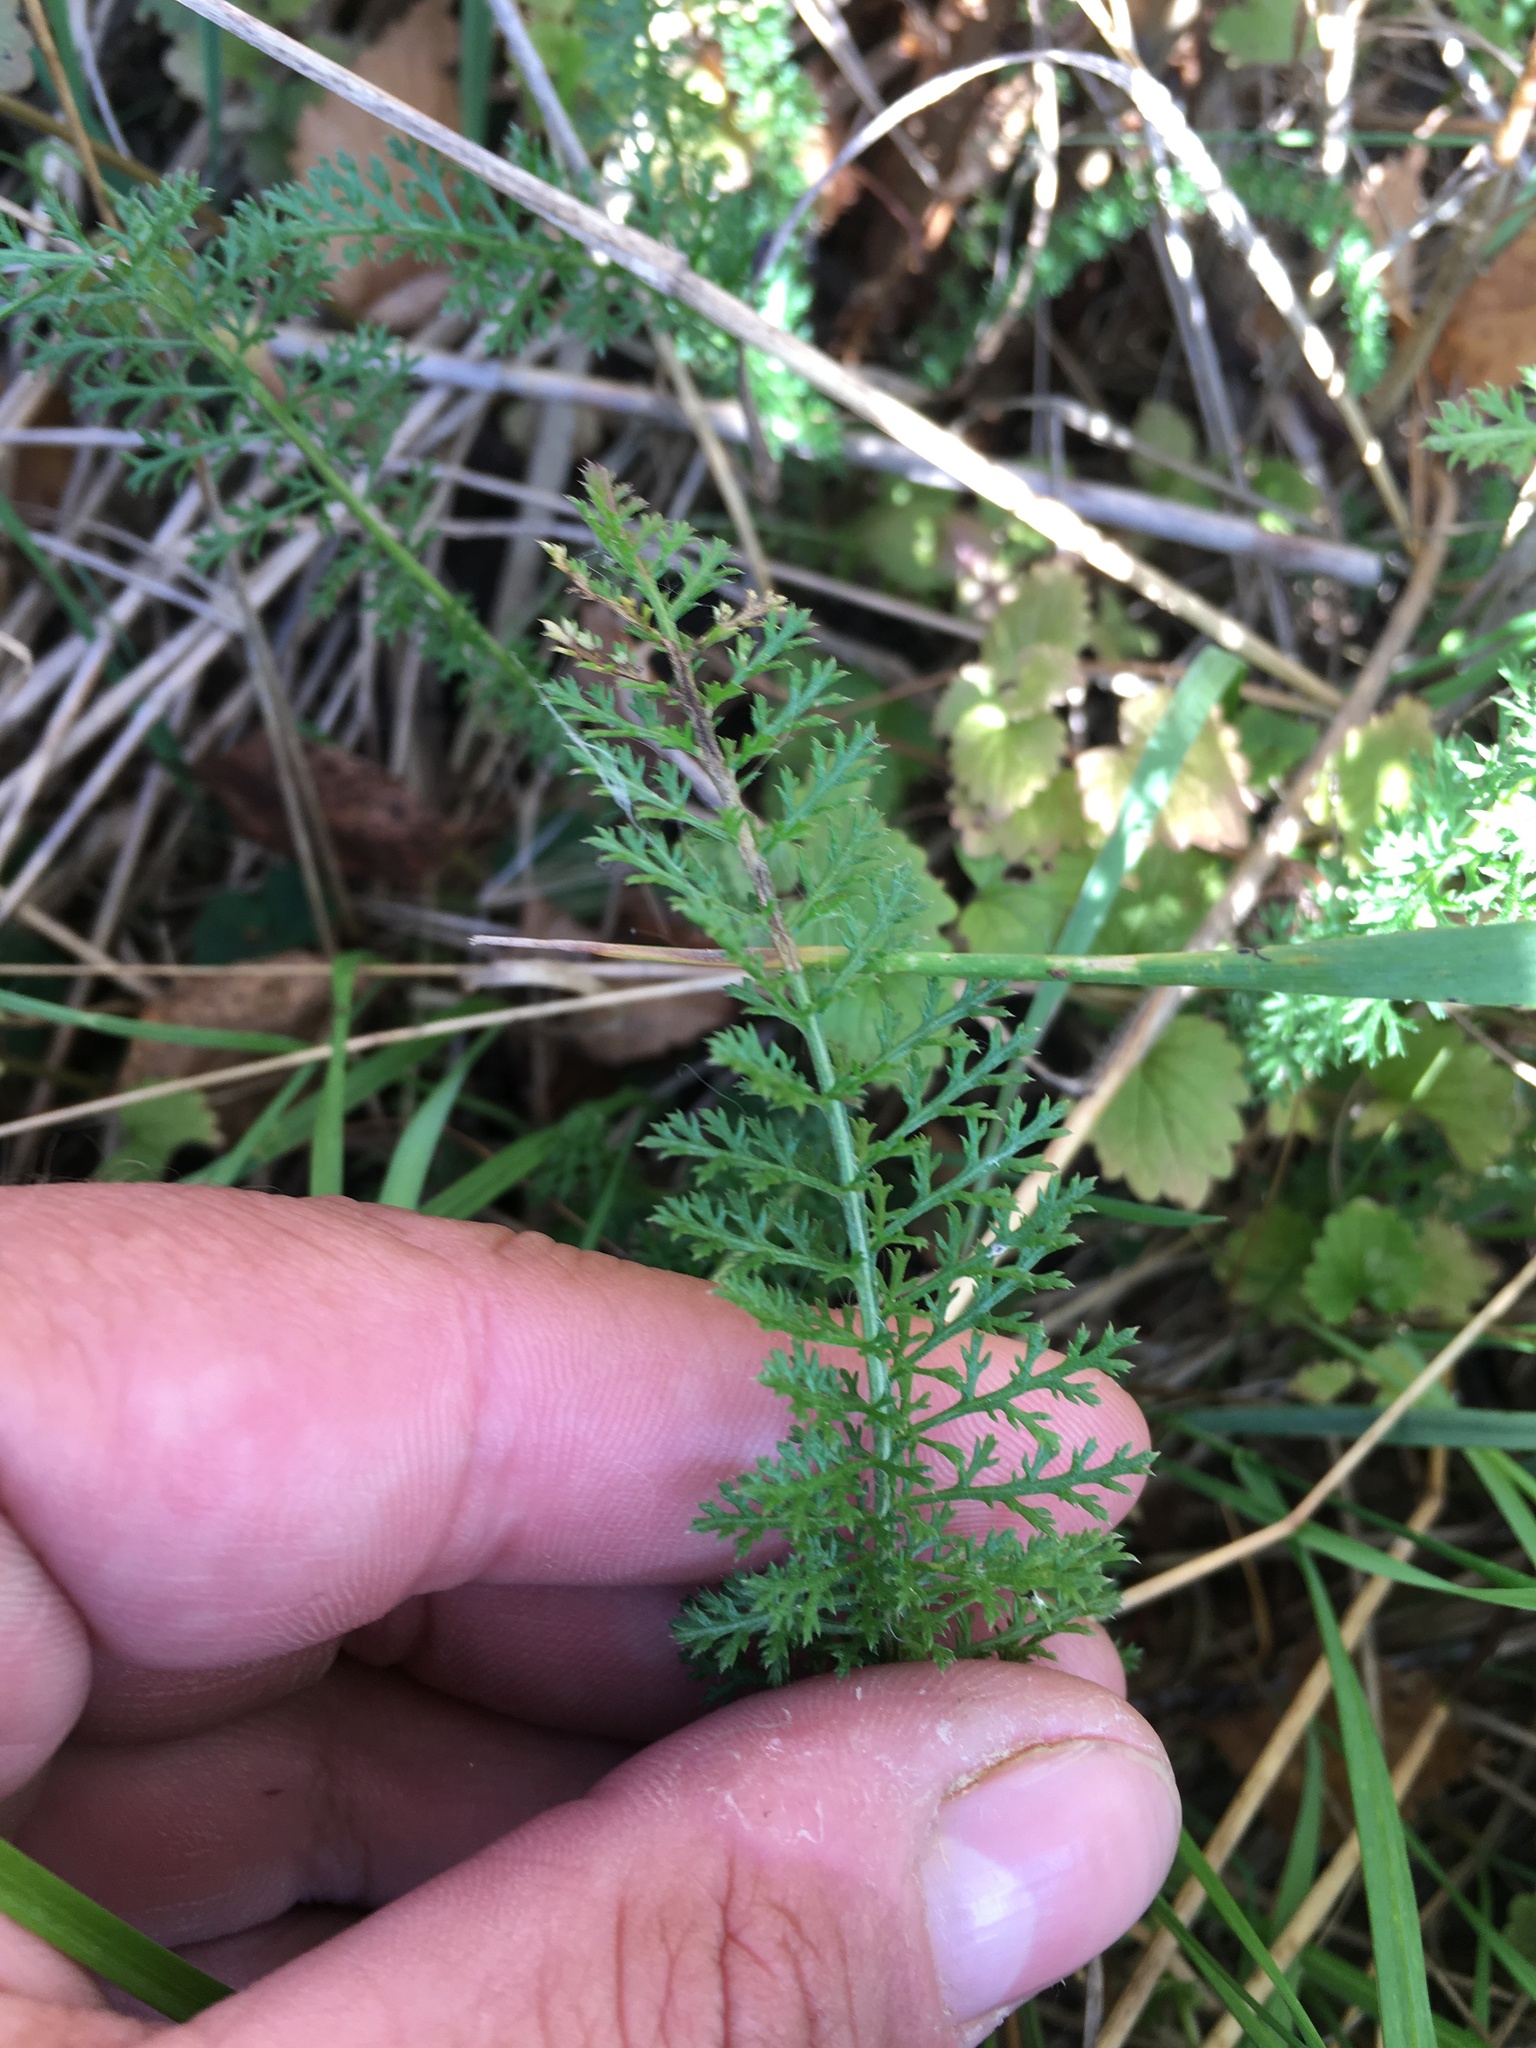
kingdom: Plantae
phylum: Tracheophyta
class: Magnoliopsida
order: Asterales
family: Asteraceae
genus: Achillea
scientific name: Achillea millefolium
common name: Yarrow
